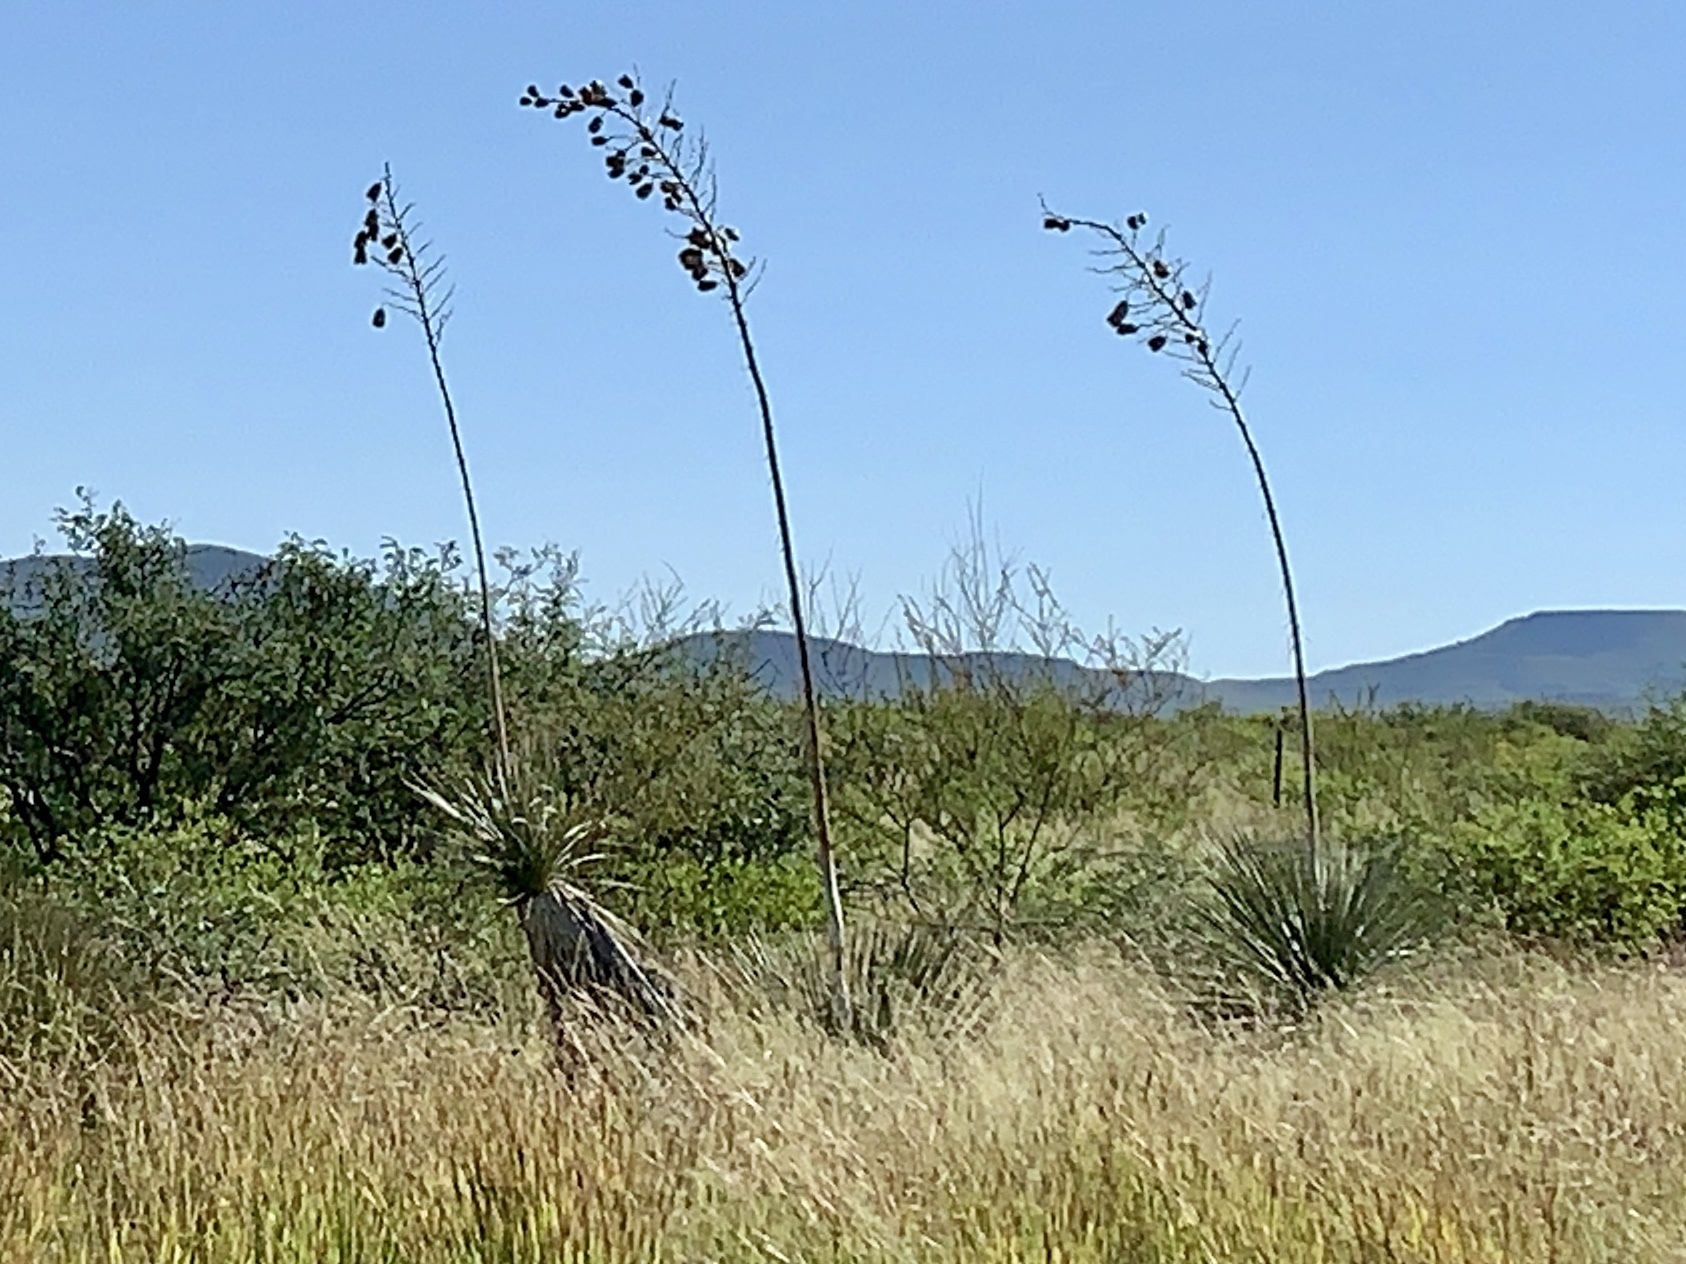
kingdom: Plantae
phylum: Tracheophyta
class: Liliopsida
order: Asparagales
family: Asparagaceae
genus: Yucca
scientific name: Yucca elata
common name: Palmella
